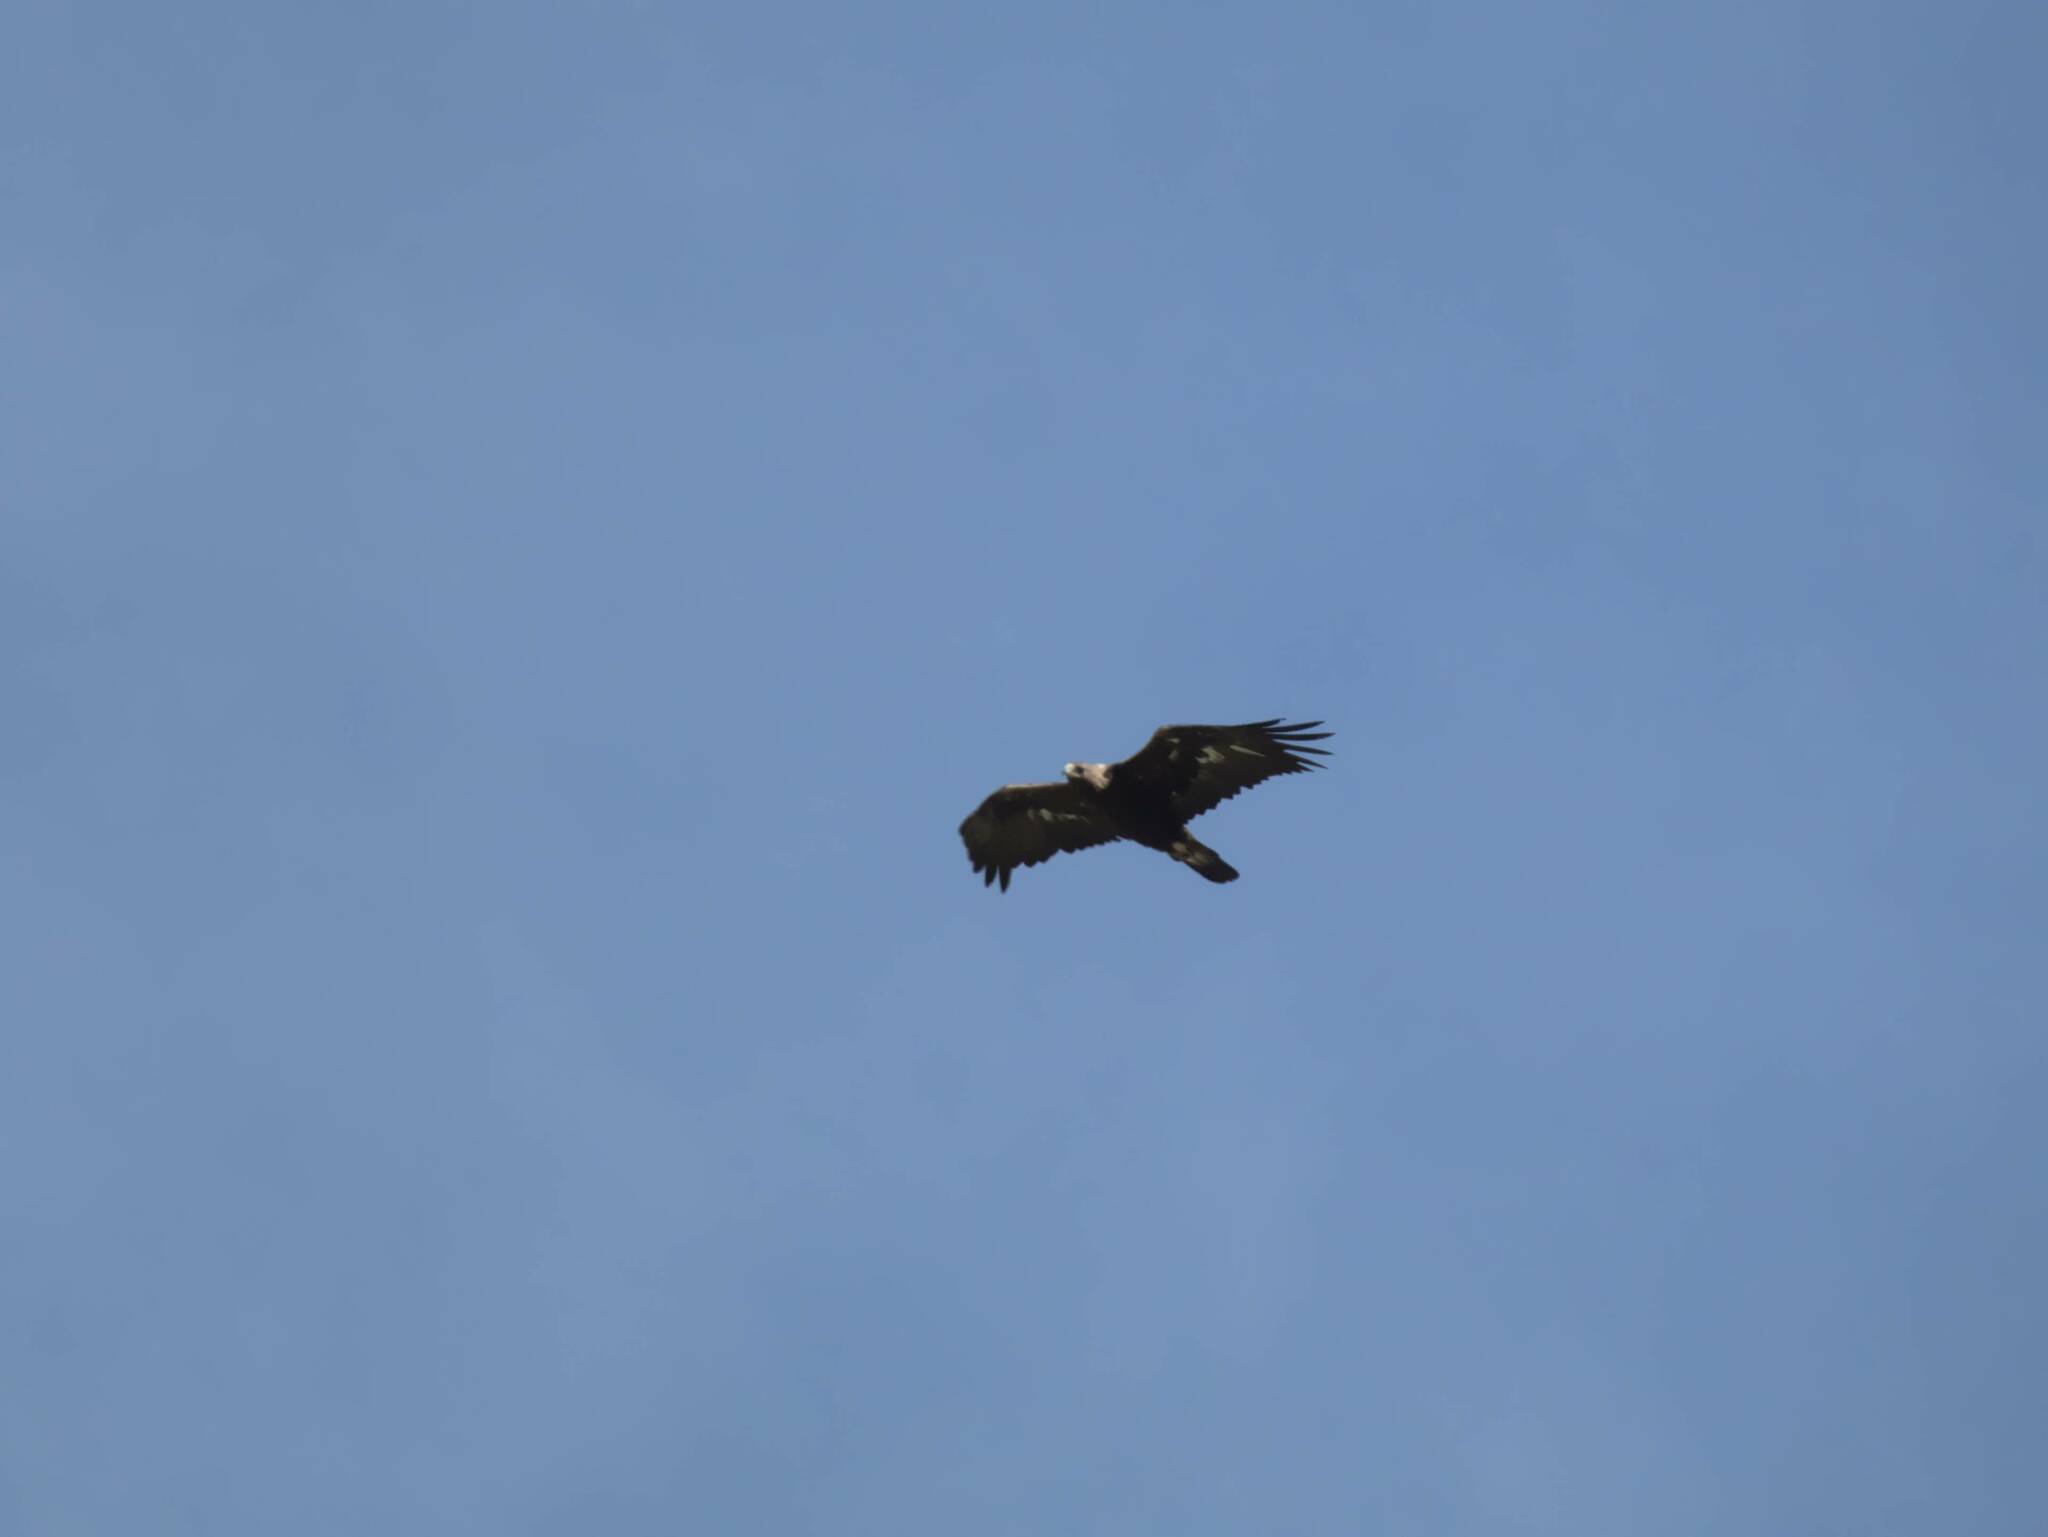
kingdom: Animalia
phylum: Chordata
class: Aves
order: Accipitriformes
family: Accipitridae
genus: Aquila
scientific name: Aquila chrysaetos
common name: Golden eagle
